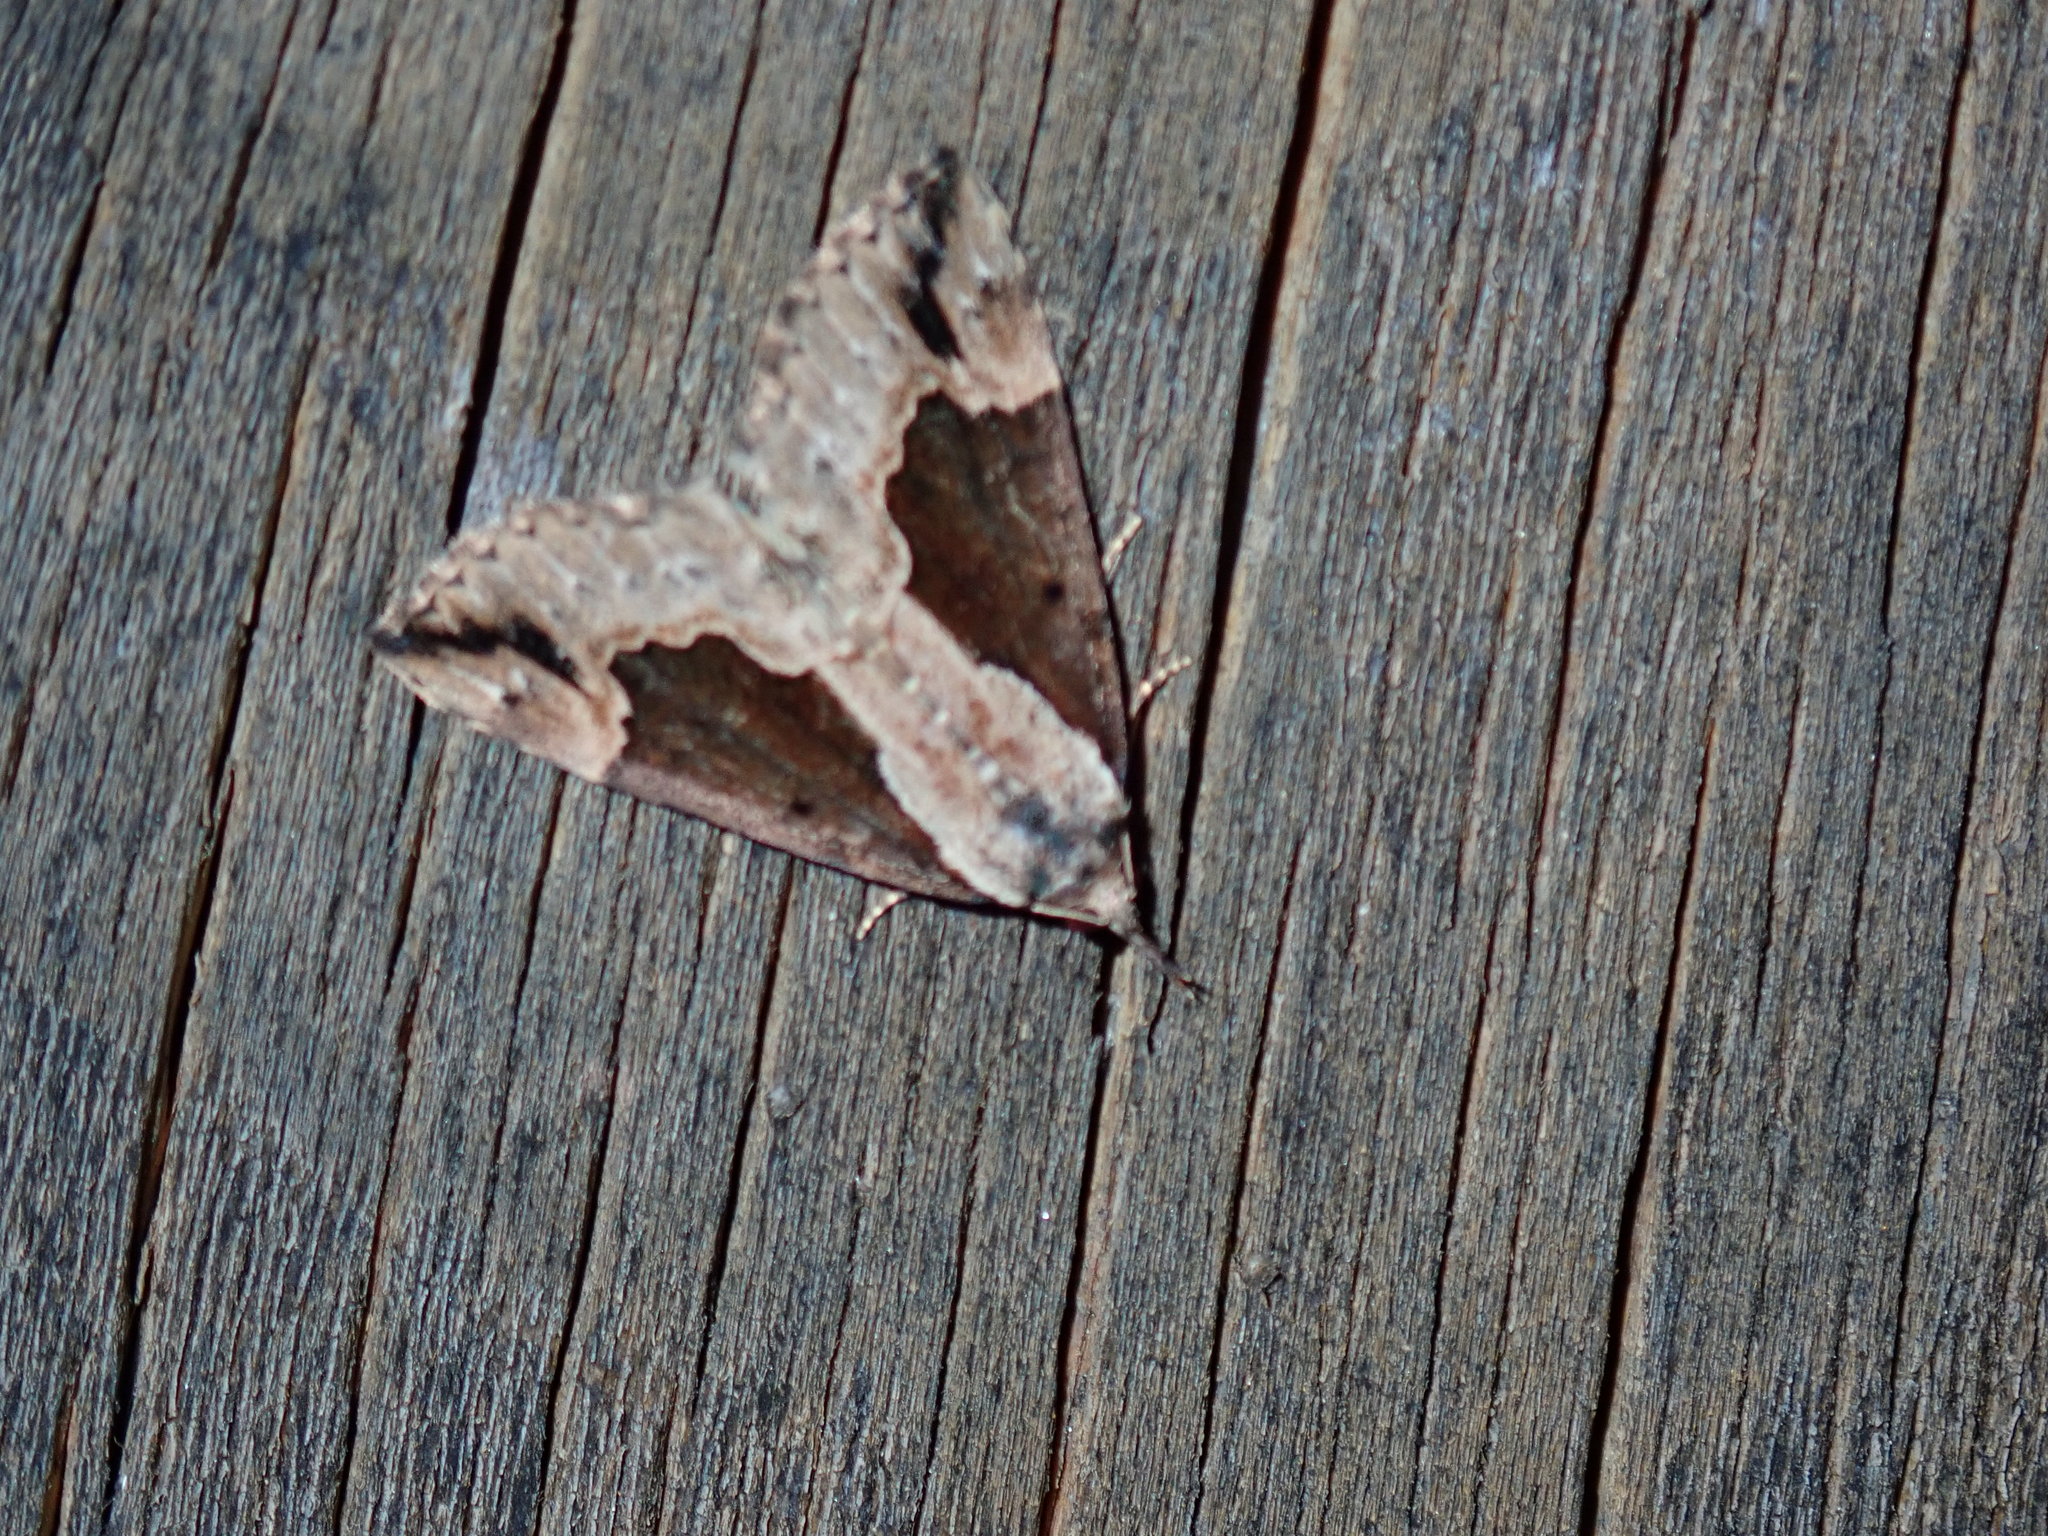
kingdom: Animalia
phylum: Arthropoda
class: Insecta
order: Lepidoptera
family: Erebidae
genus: Hypena
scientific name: Hypena baltimoralis
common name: Baltimore snout
